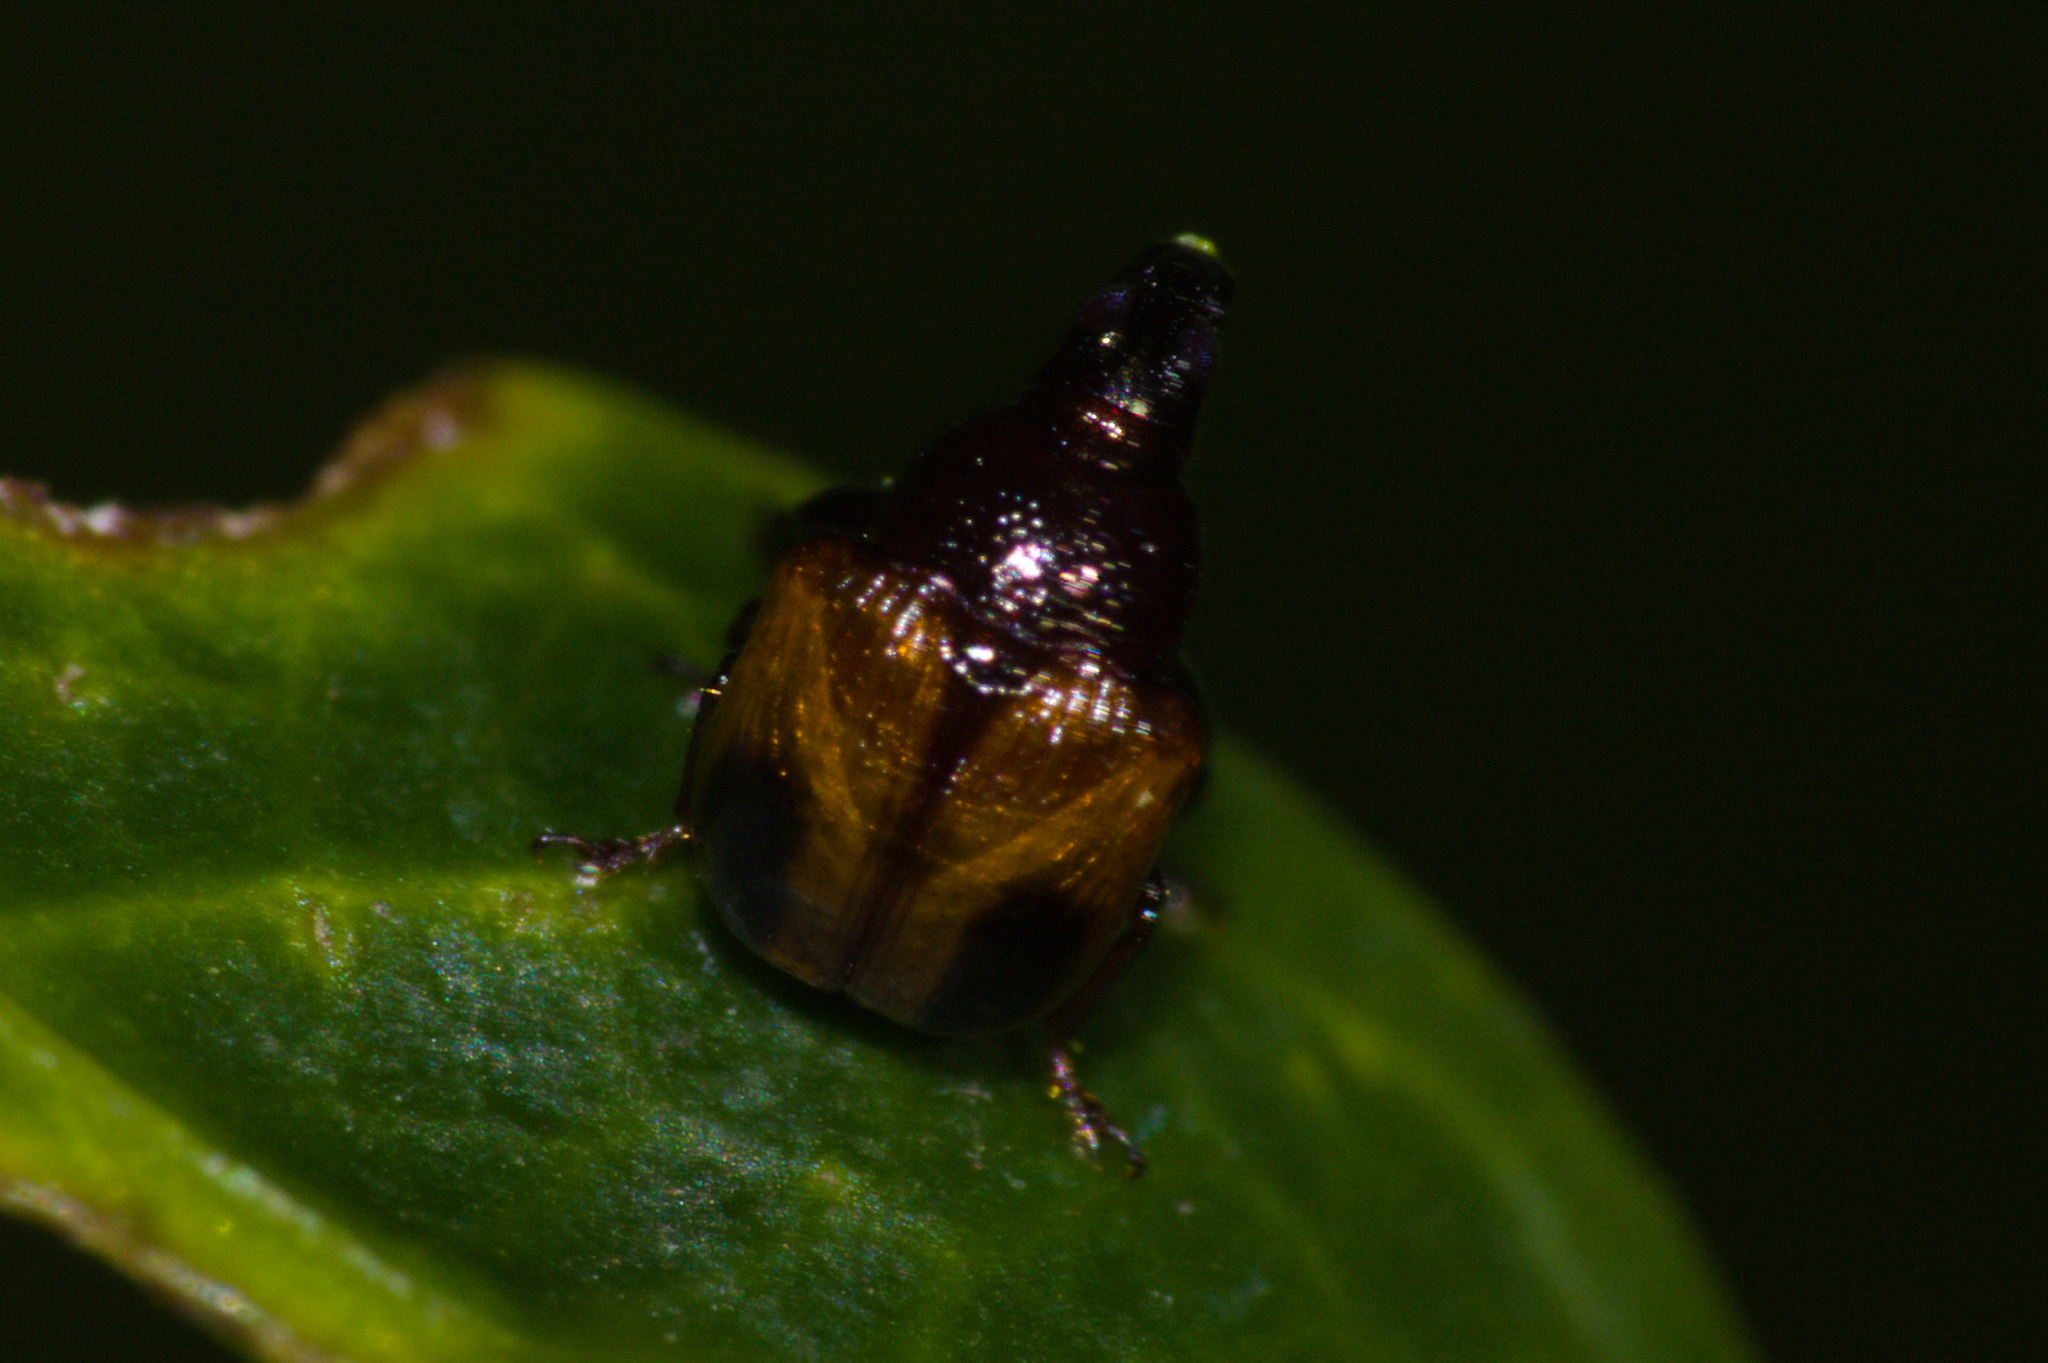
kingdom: Animalia
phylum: Arthropoda
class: Insecta
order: Coleoptera
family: Attelabidae
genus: Xestolabus
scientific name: Xestolabus biplagiatus
